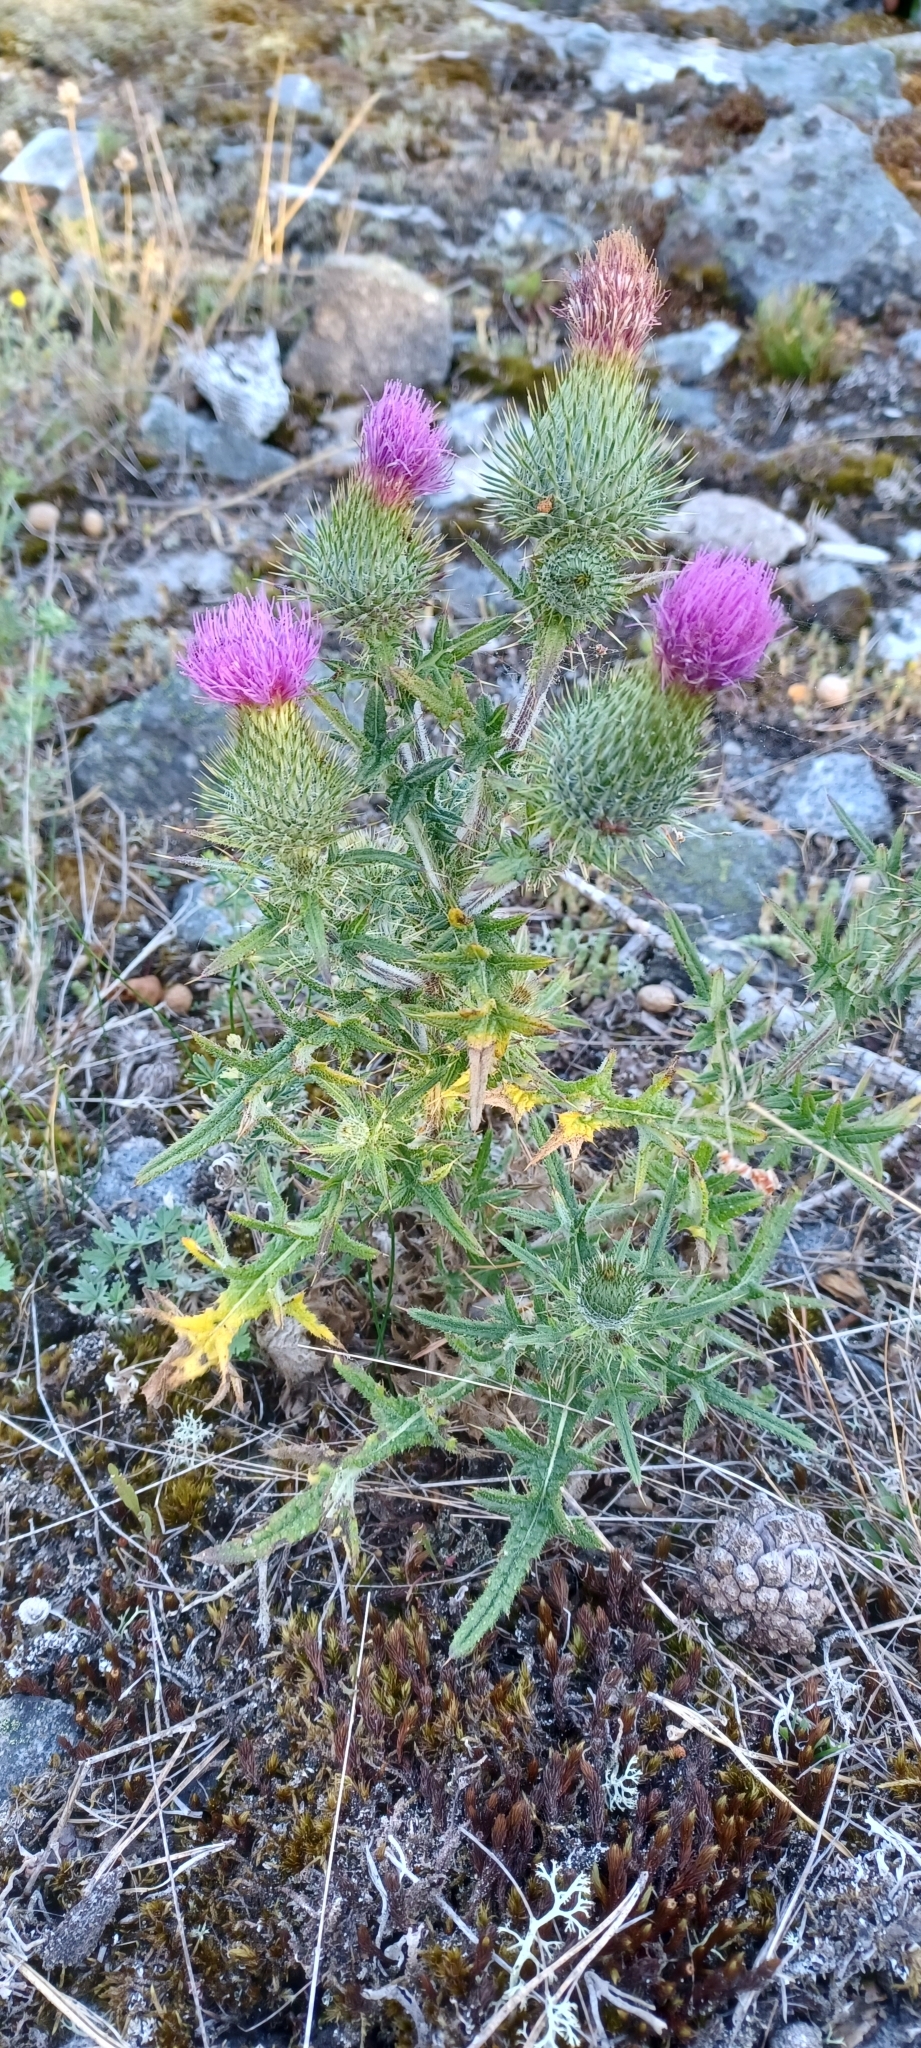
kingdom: Plantae
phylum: Tracheophyta
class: Magnoliopsida
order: Asterales
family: Asteraceae
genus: Cirsium
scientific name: Cirsium vulgare
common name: Bull thistle
